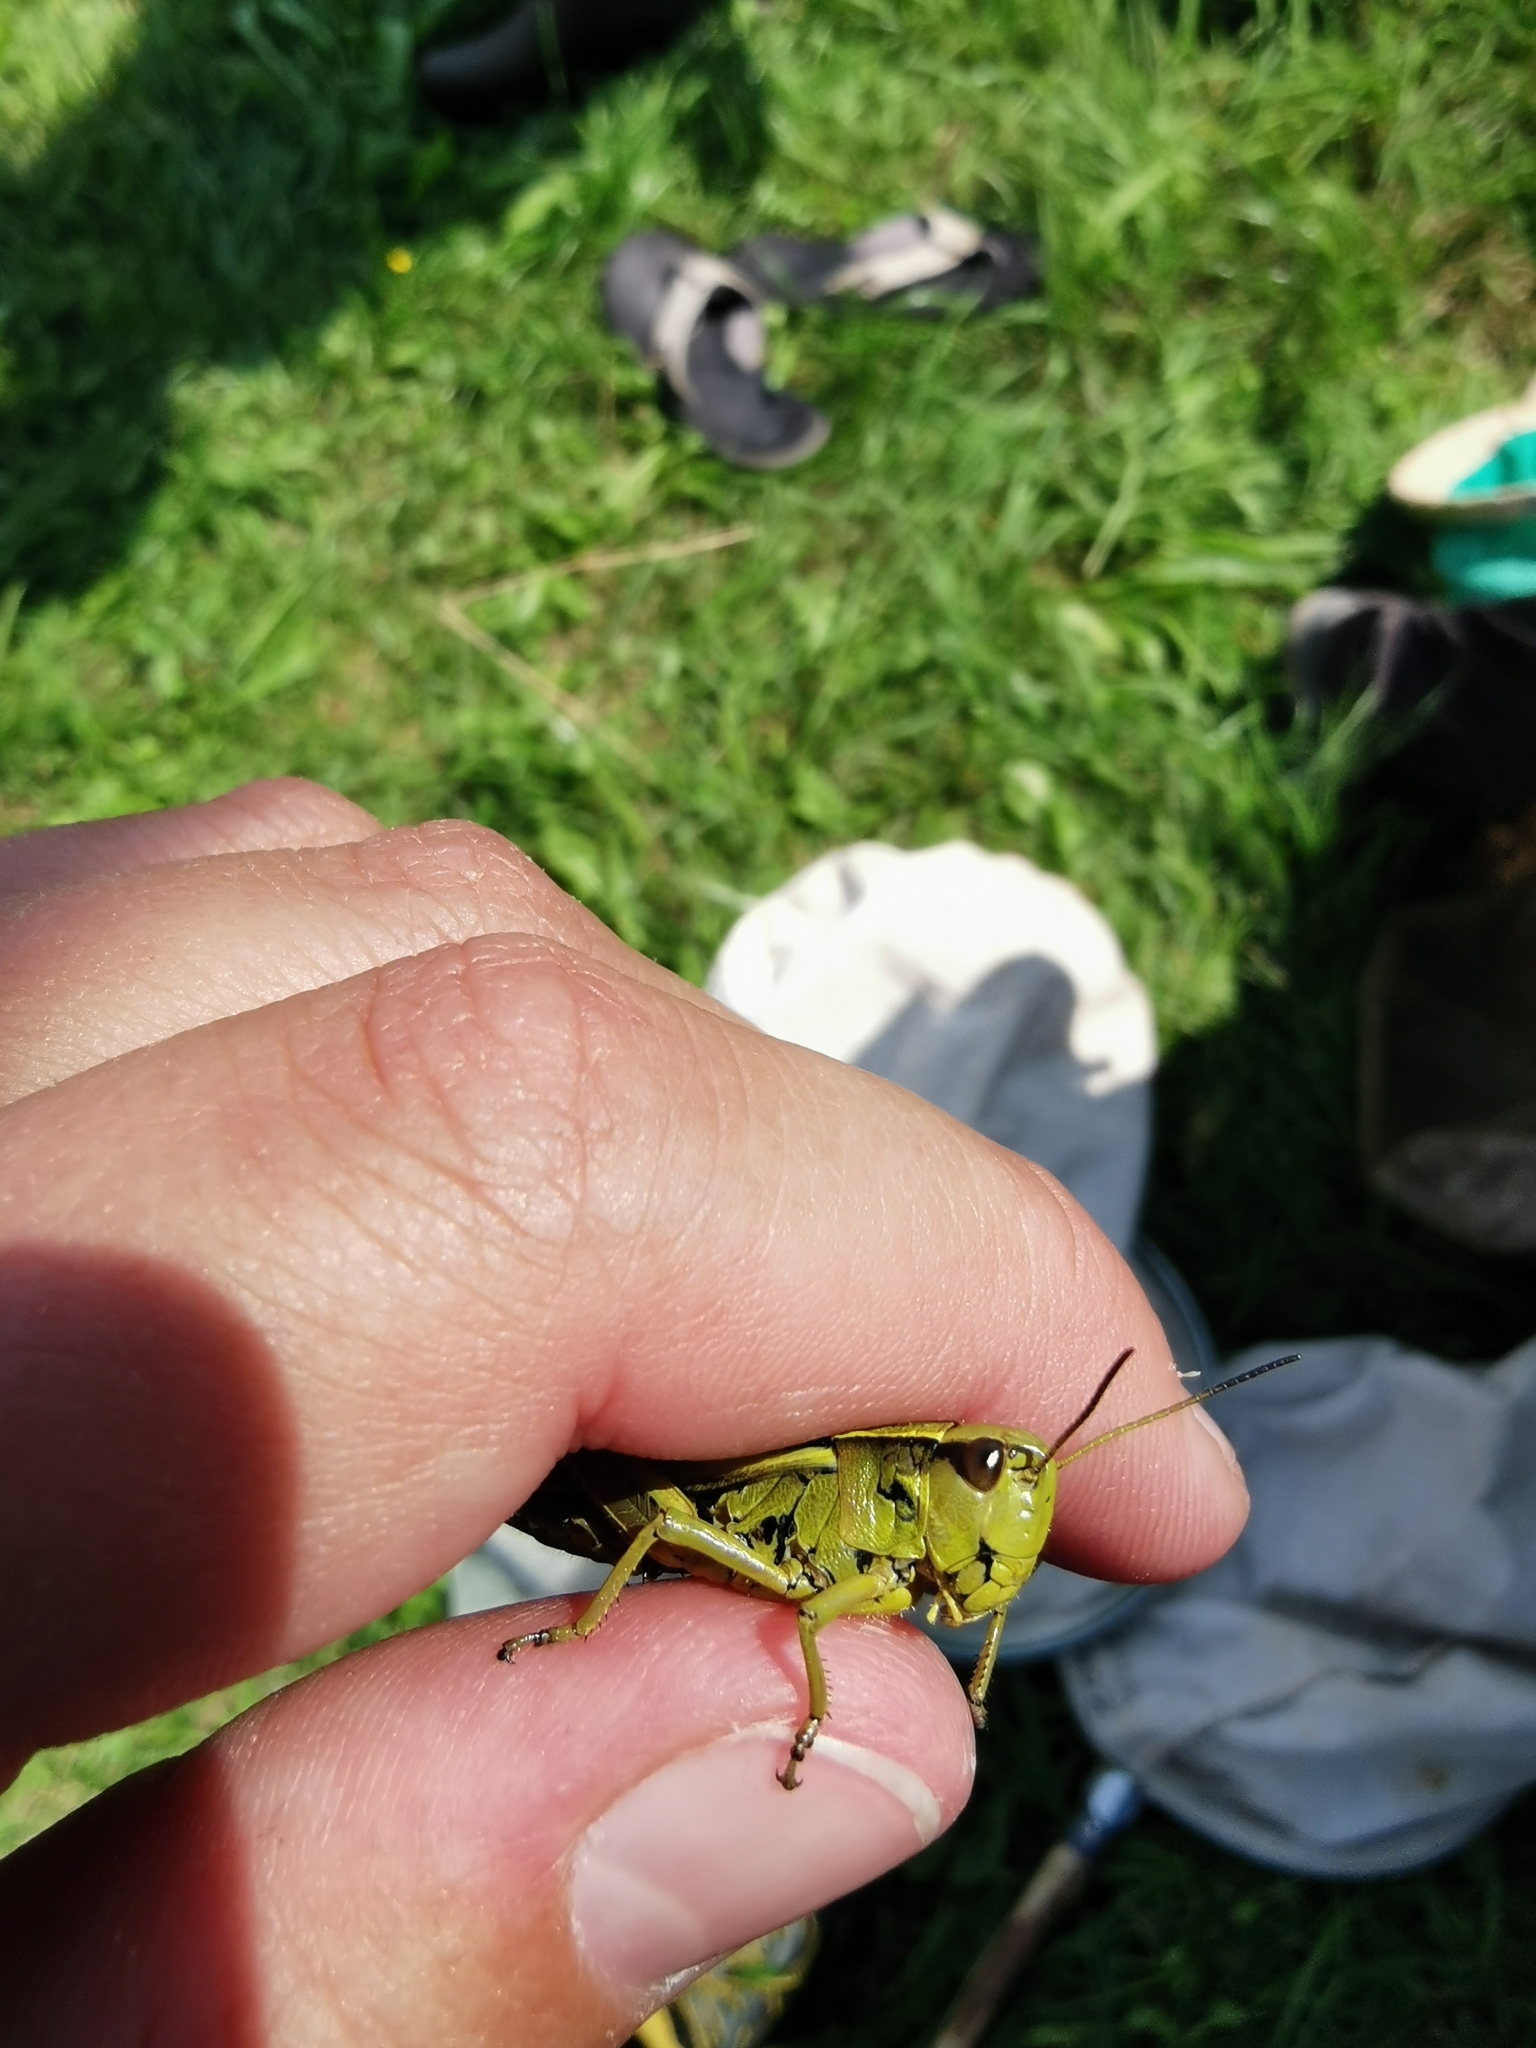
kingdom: Animalia
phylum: Arthropoda
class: Insecta
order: Orthoptera
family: Acrididae
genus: Stethophyma
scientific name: Stethophyma grossum
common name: Large marsh grasshopper
